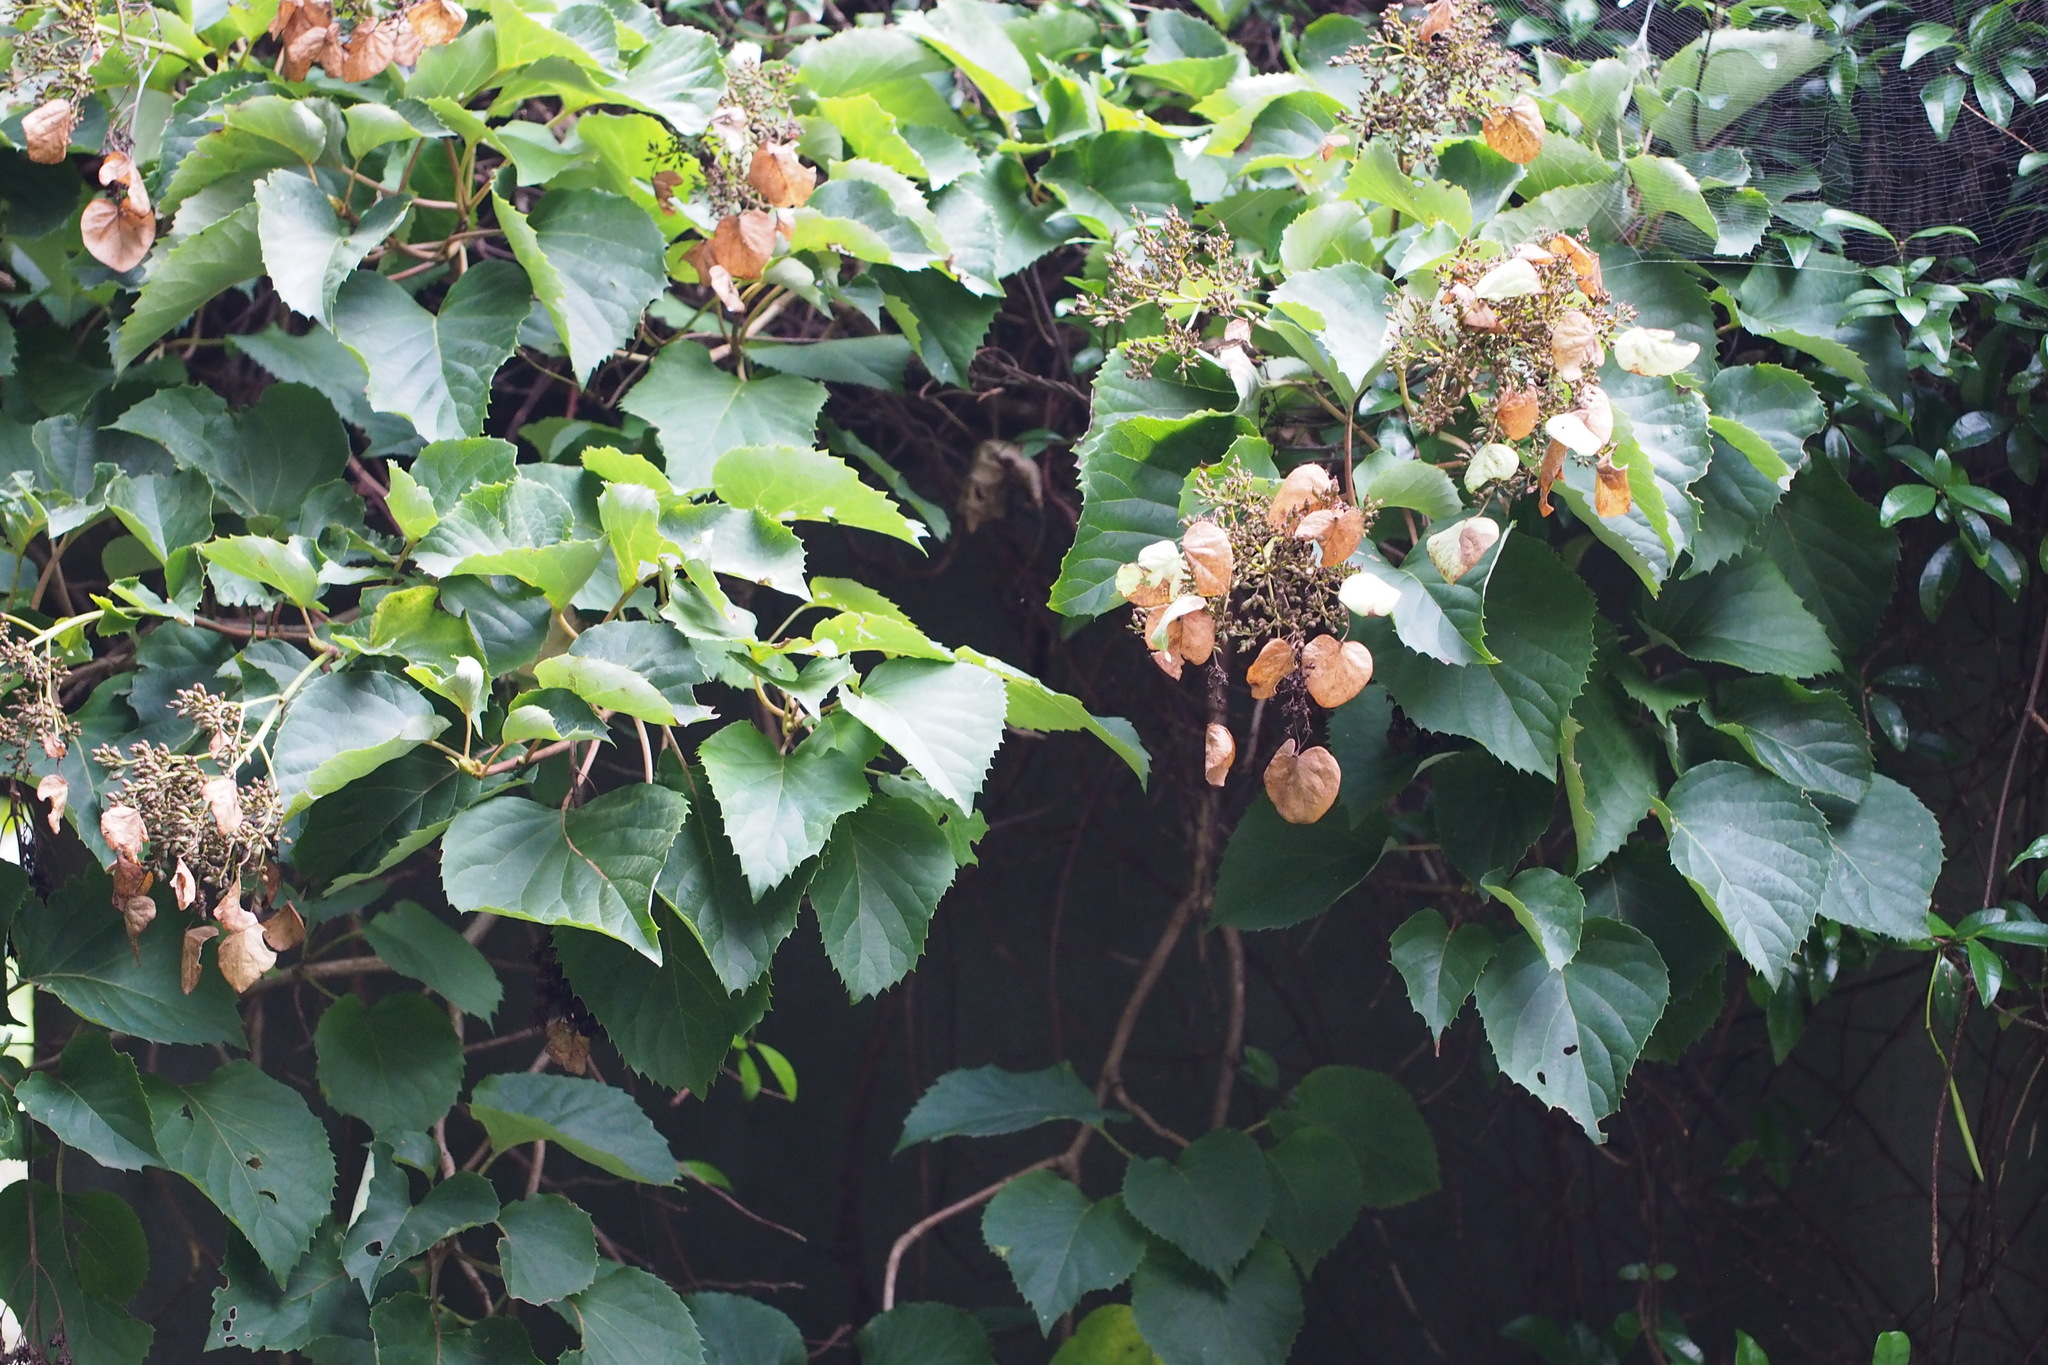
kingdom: Plantae
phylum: Tracheophyta
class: Magnoliopsida
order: Cornales
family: Hydrangeaceae
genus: Hydrangea
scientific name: Hydrangea hydrangeoides
